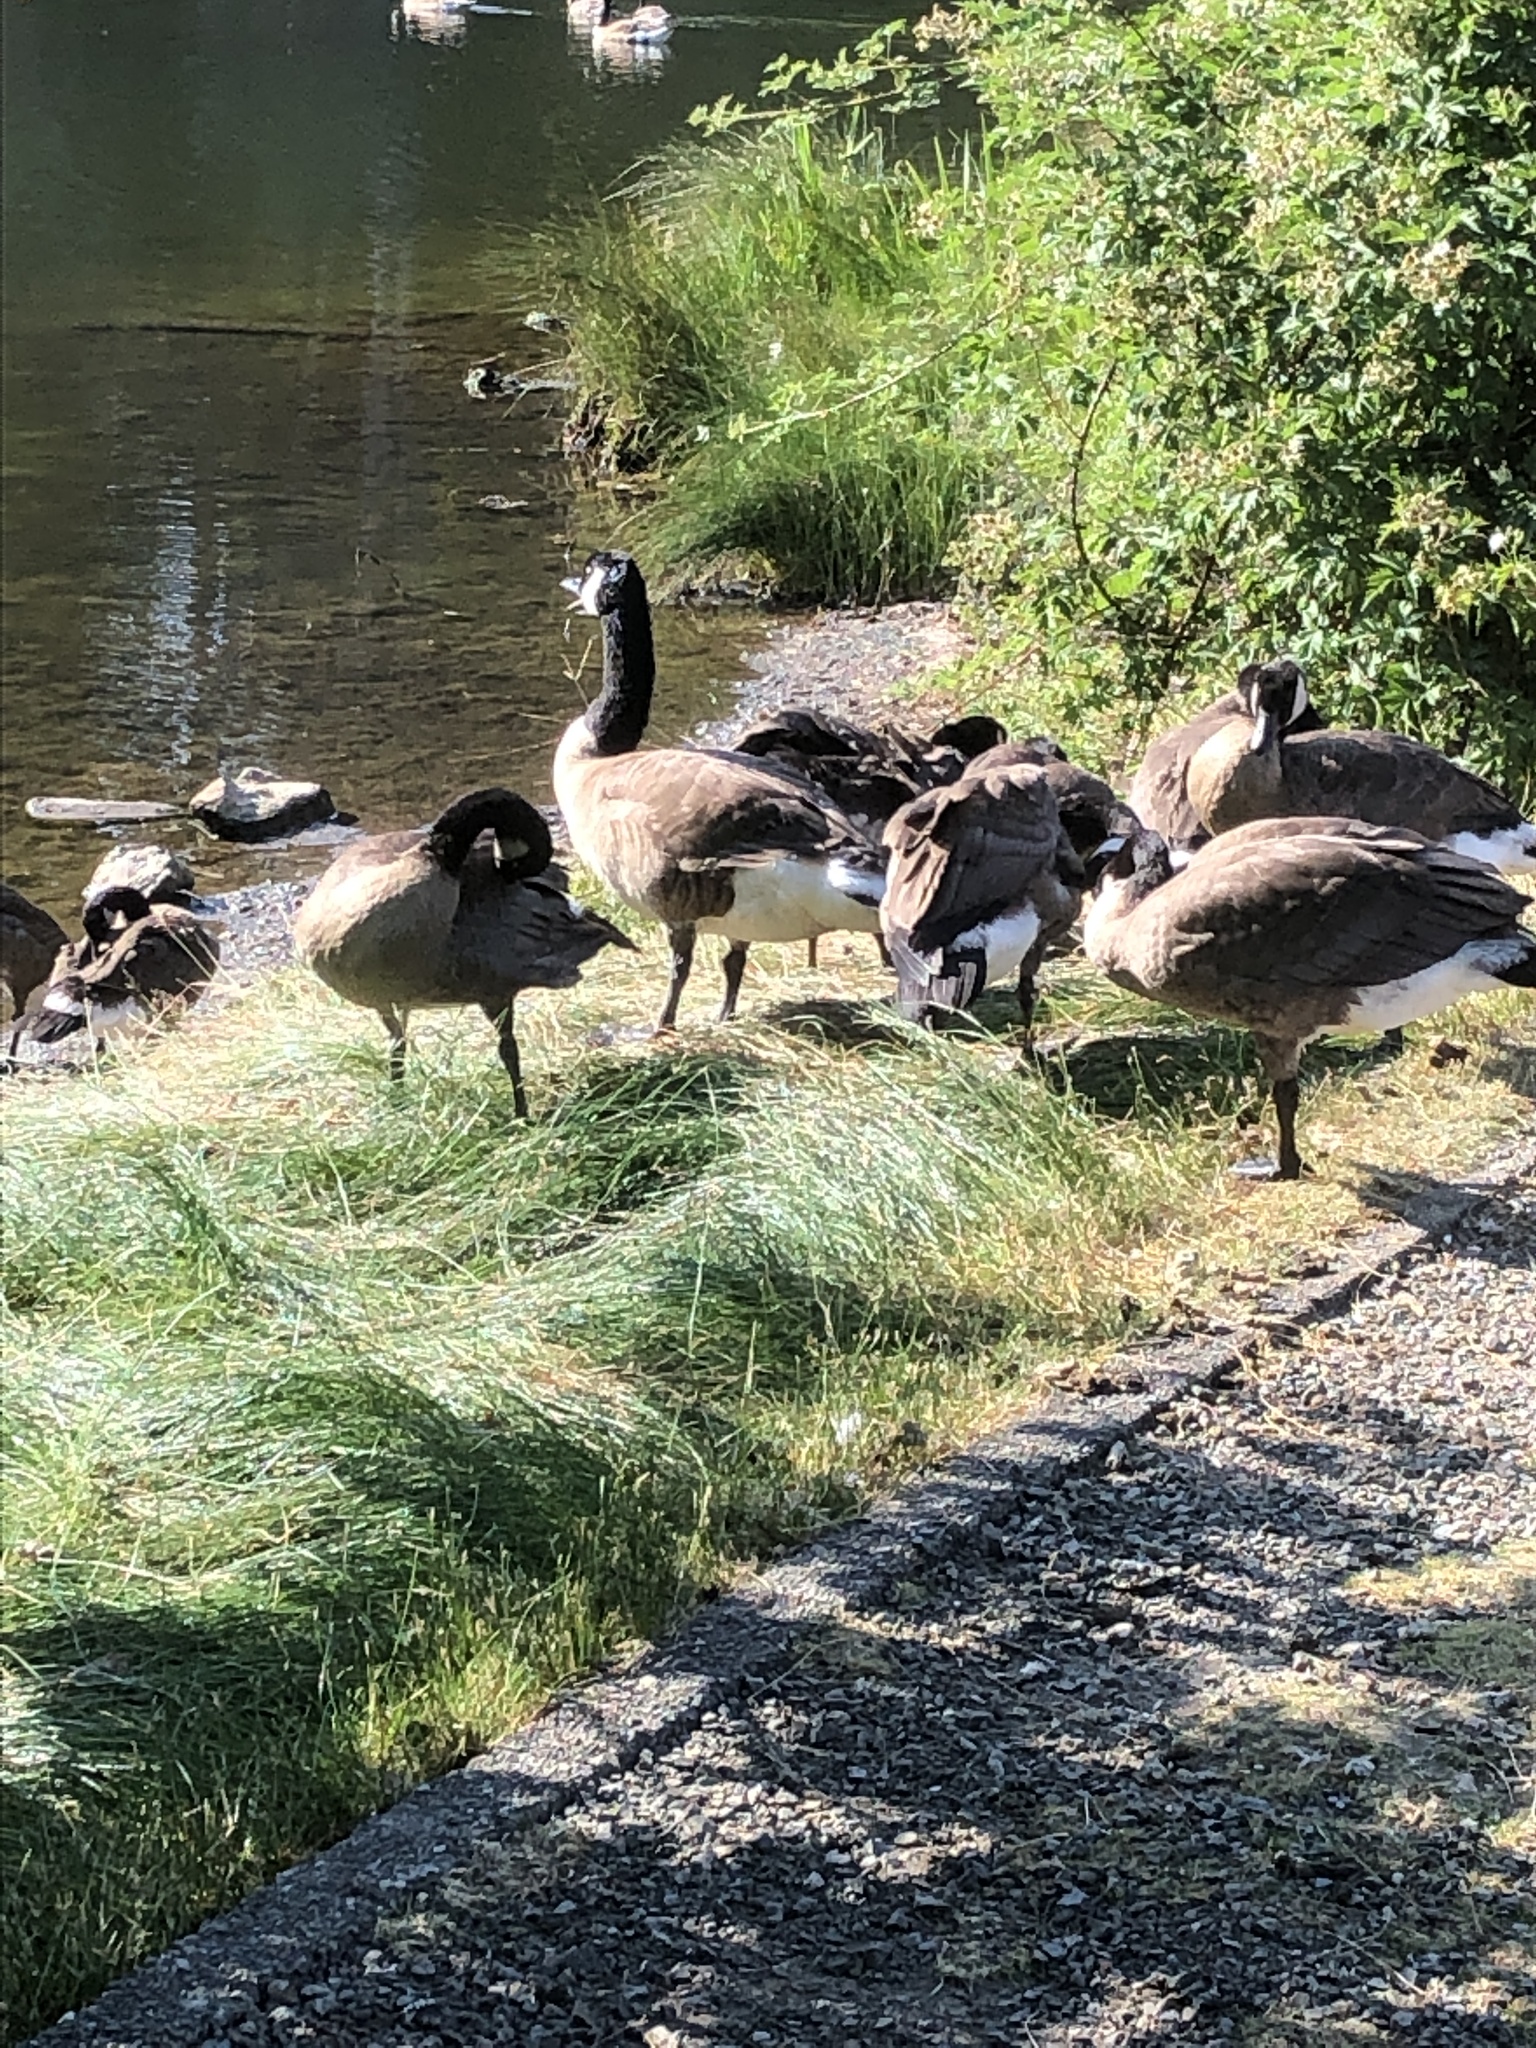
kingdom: Animalia
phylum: Chordata
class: Aves
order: Anseriformes
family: Anatidae
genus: Branta
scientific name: Branta canadensis
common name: Canada goose
